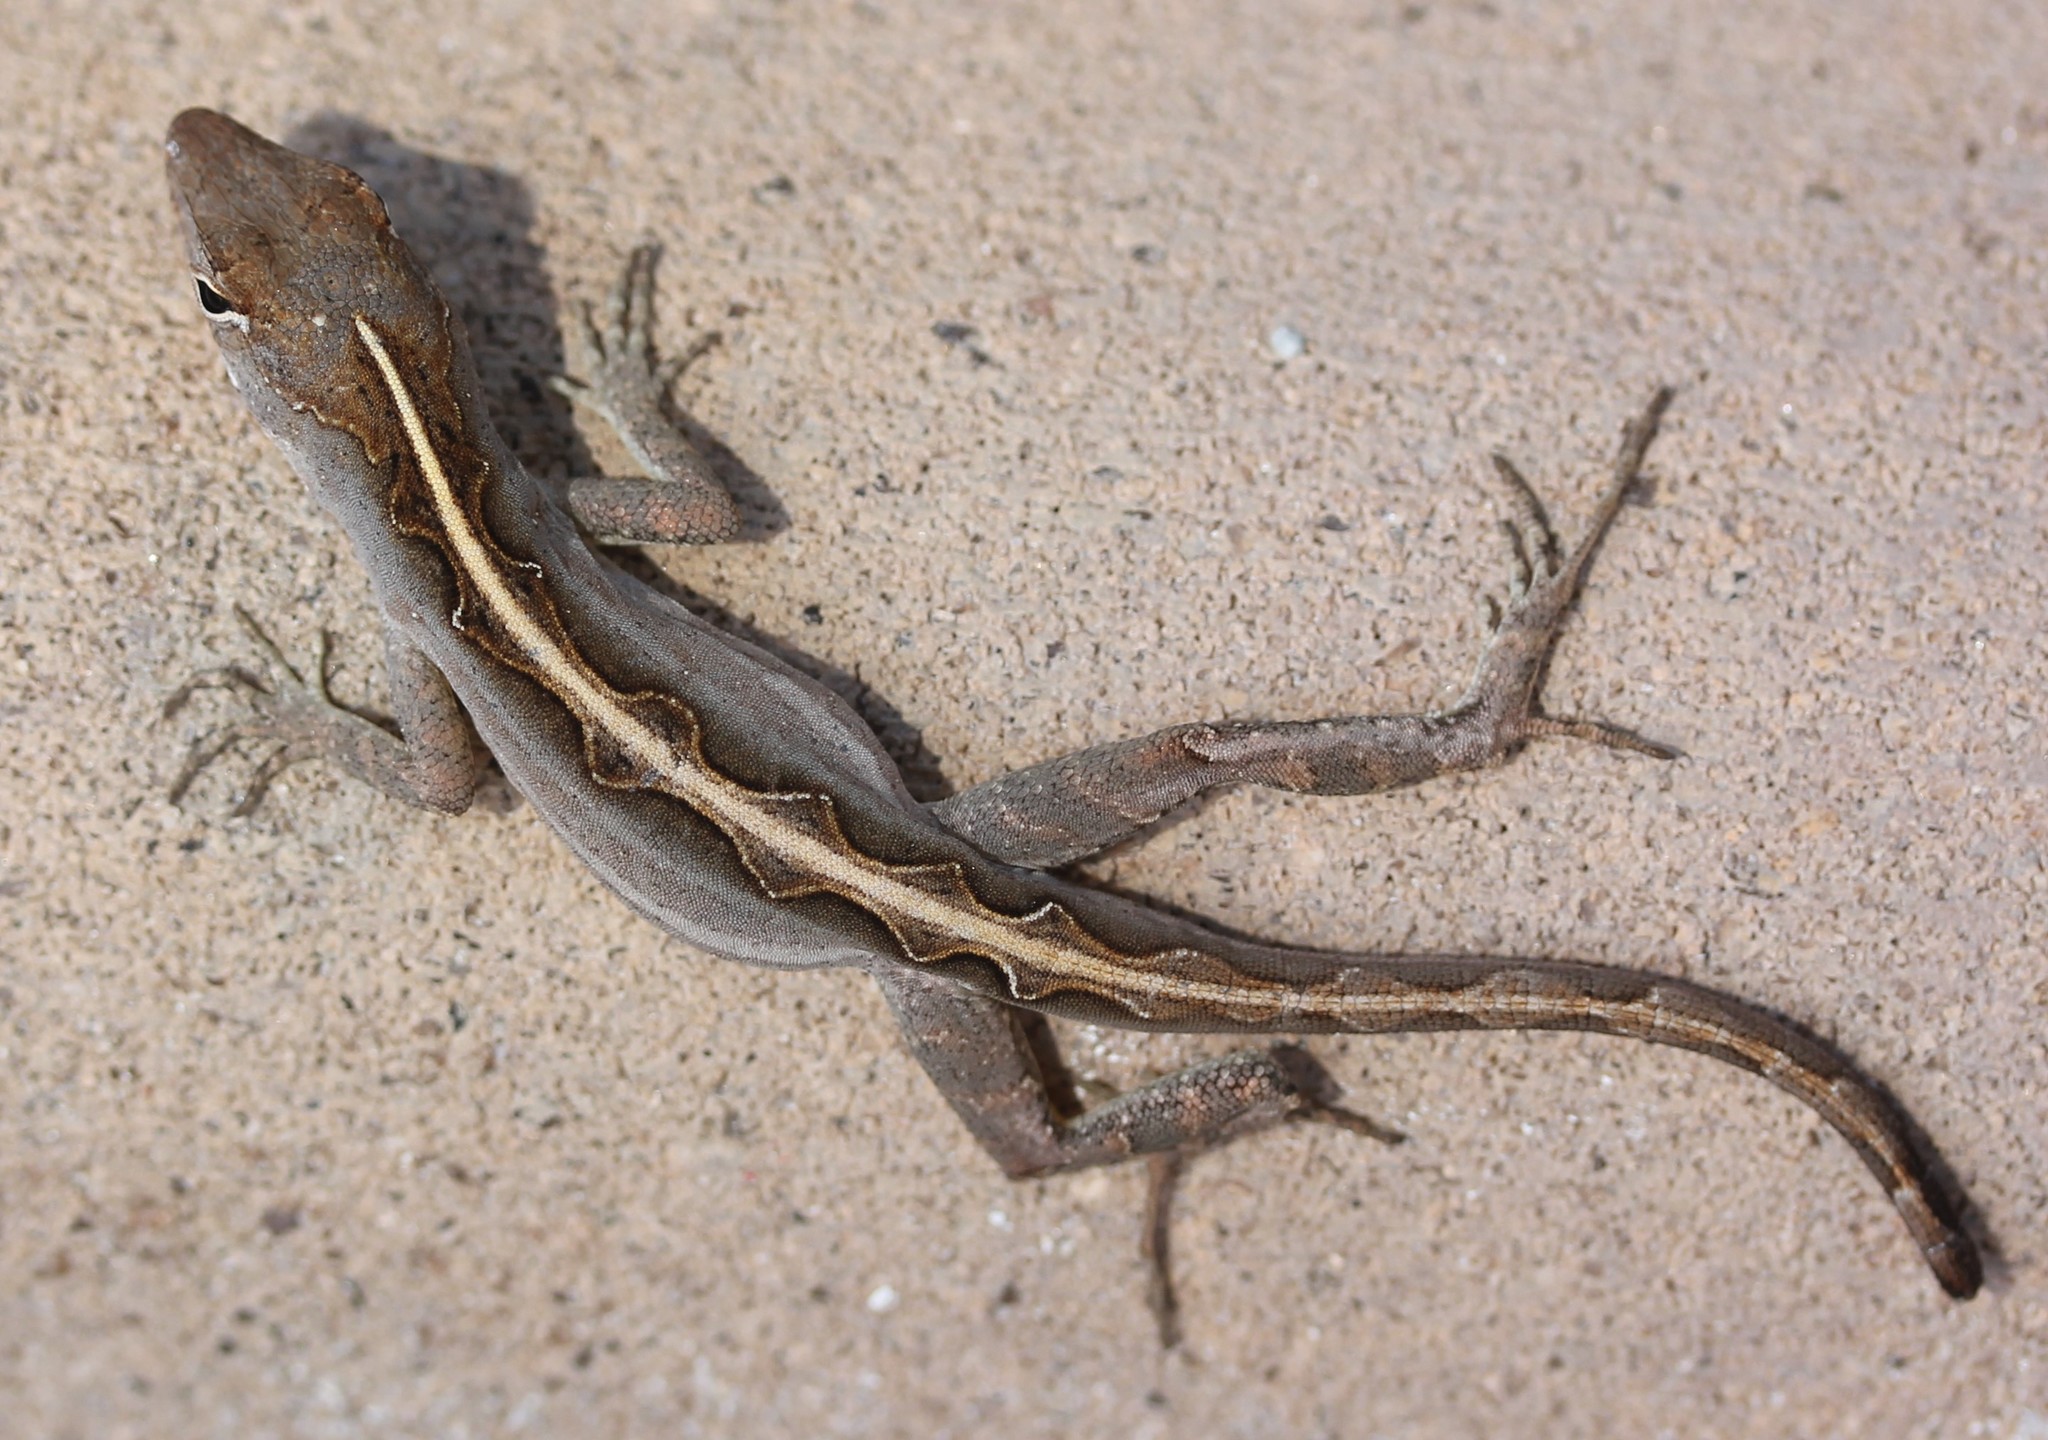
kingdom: Animalia
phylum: Chordata
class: Squamata
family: Dactyloidae
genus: Anolis
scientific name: Anolis sagrei
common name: Brown anole
